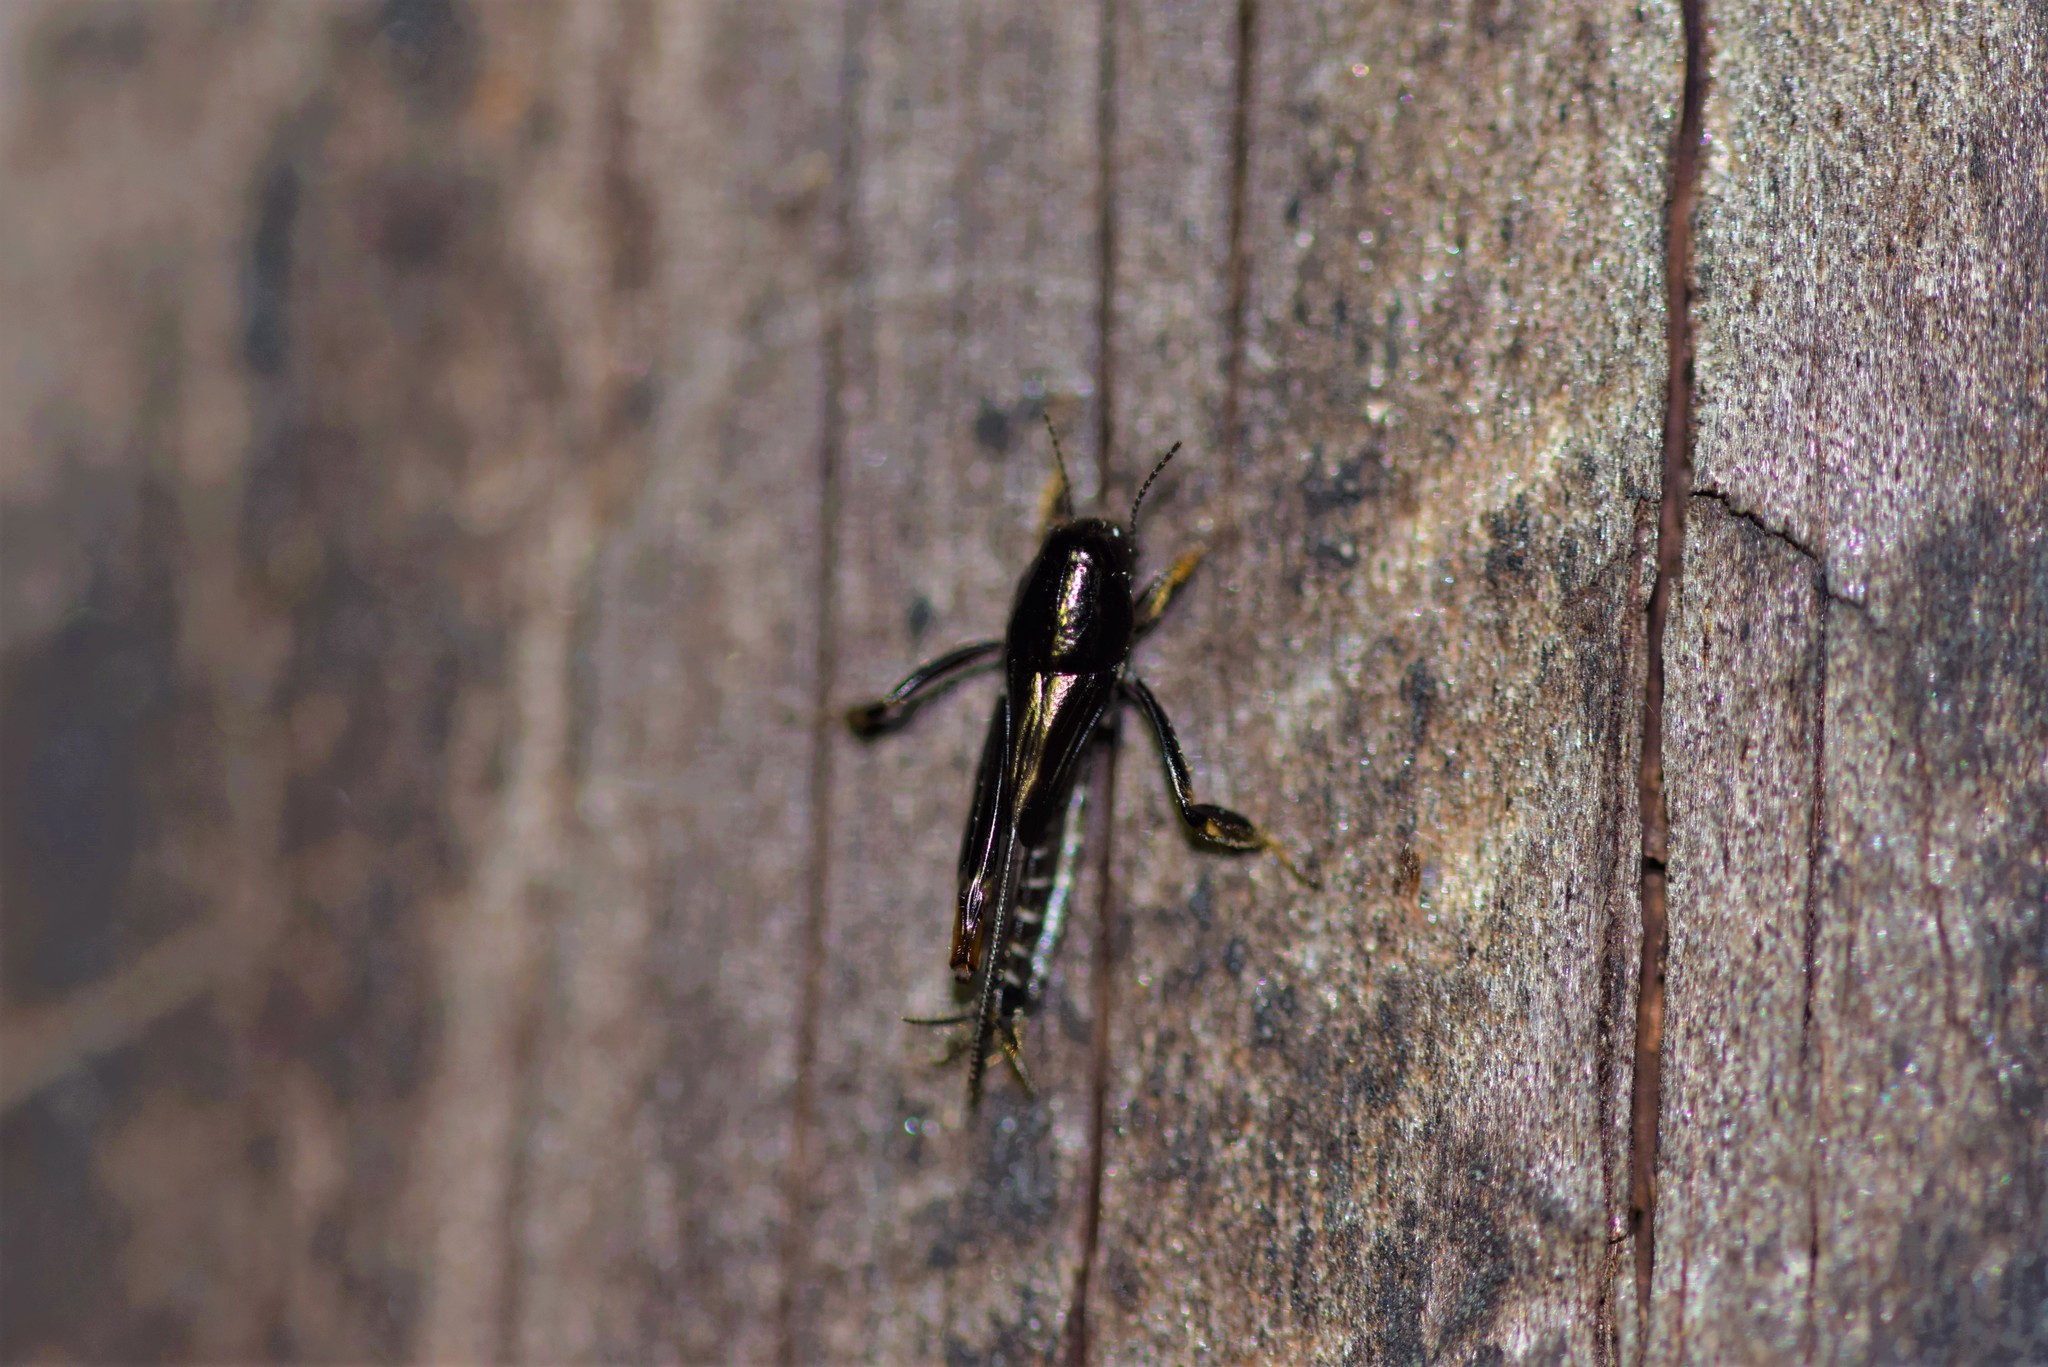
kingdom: Animalia
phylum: Arthropoda
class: Insecta
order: Orthoptera
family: Tridactylidae
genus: Neotridactylus
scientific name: Neotridactylus apicialis
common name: Larger pygmy locust
